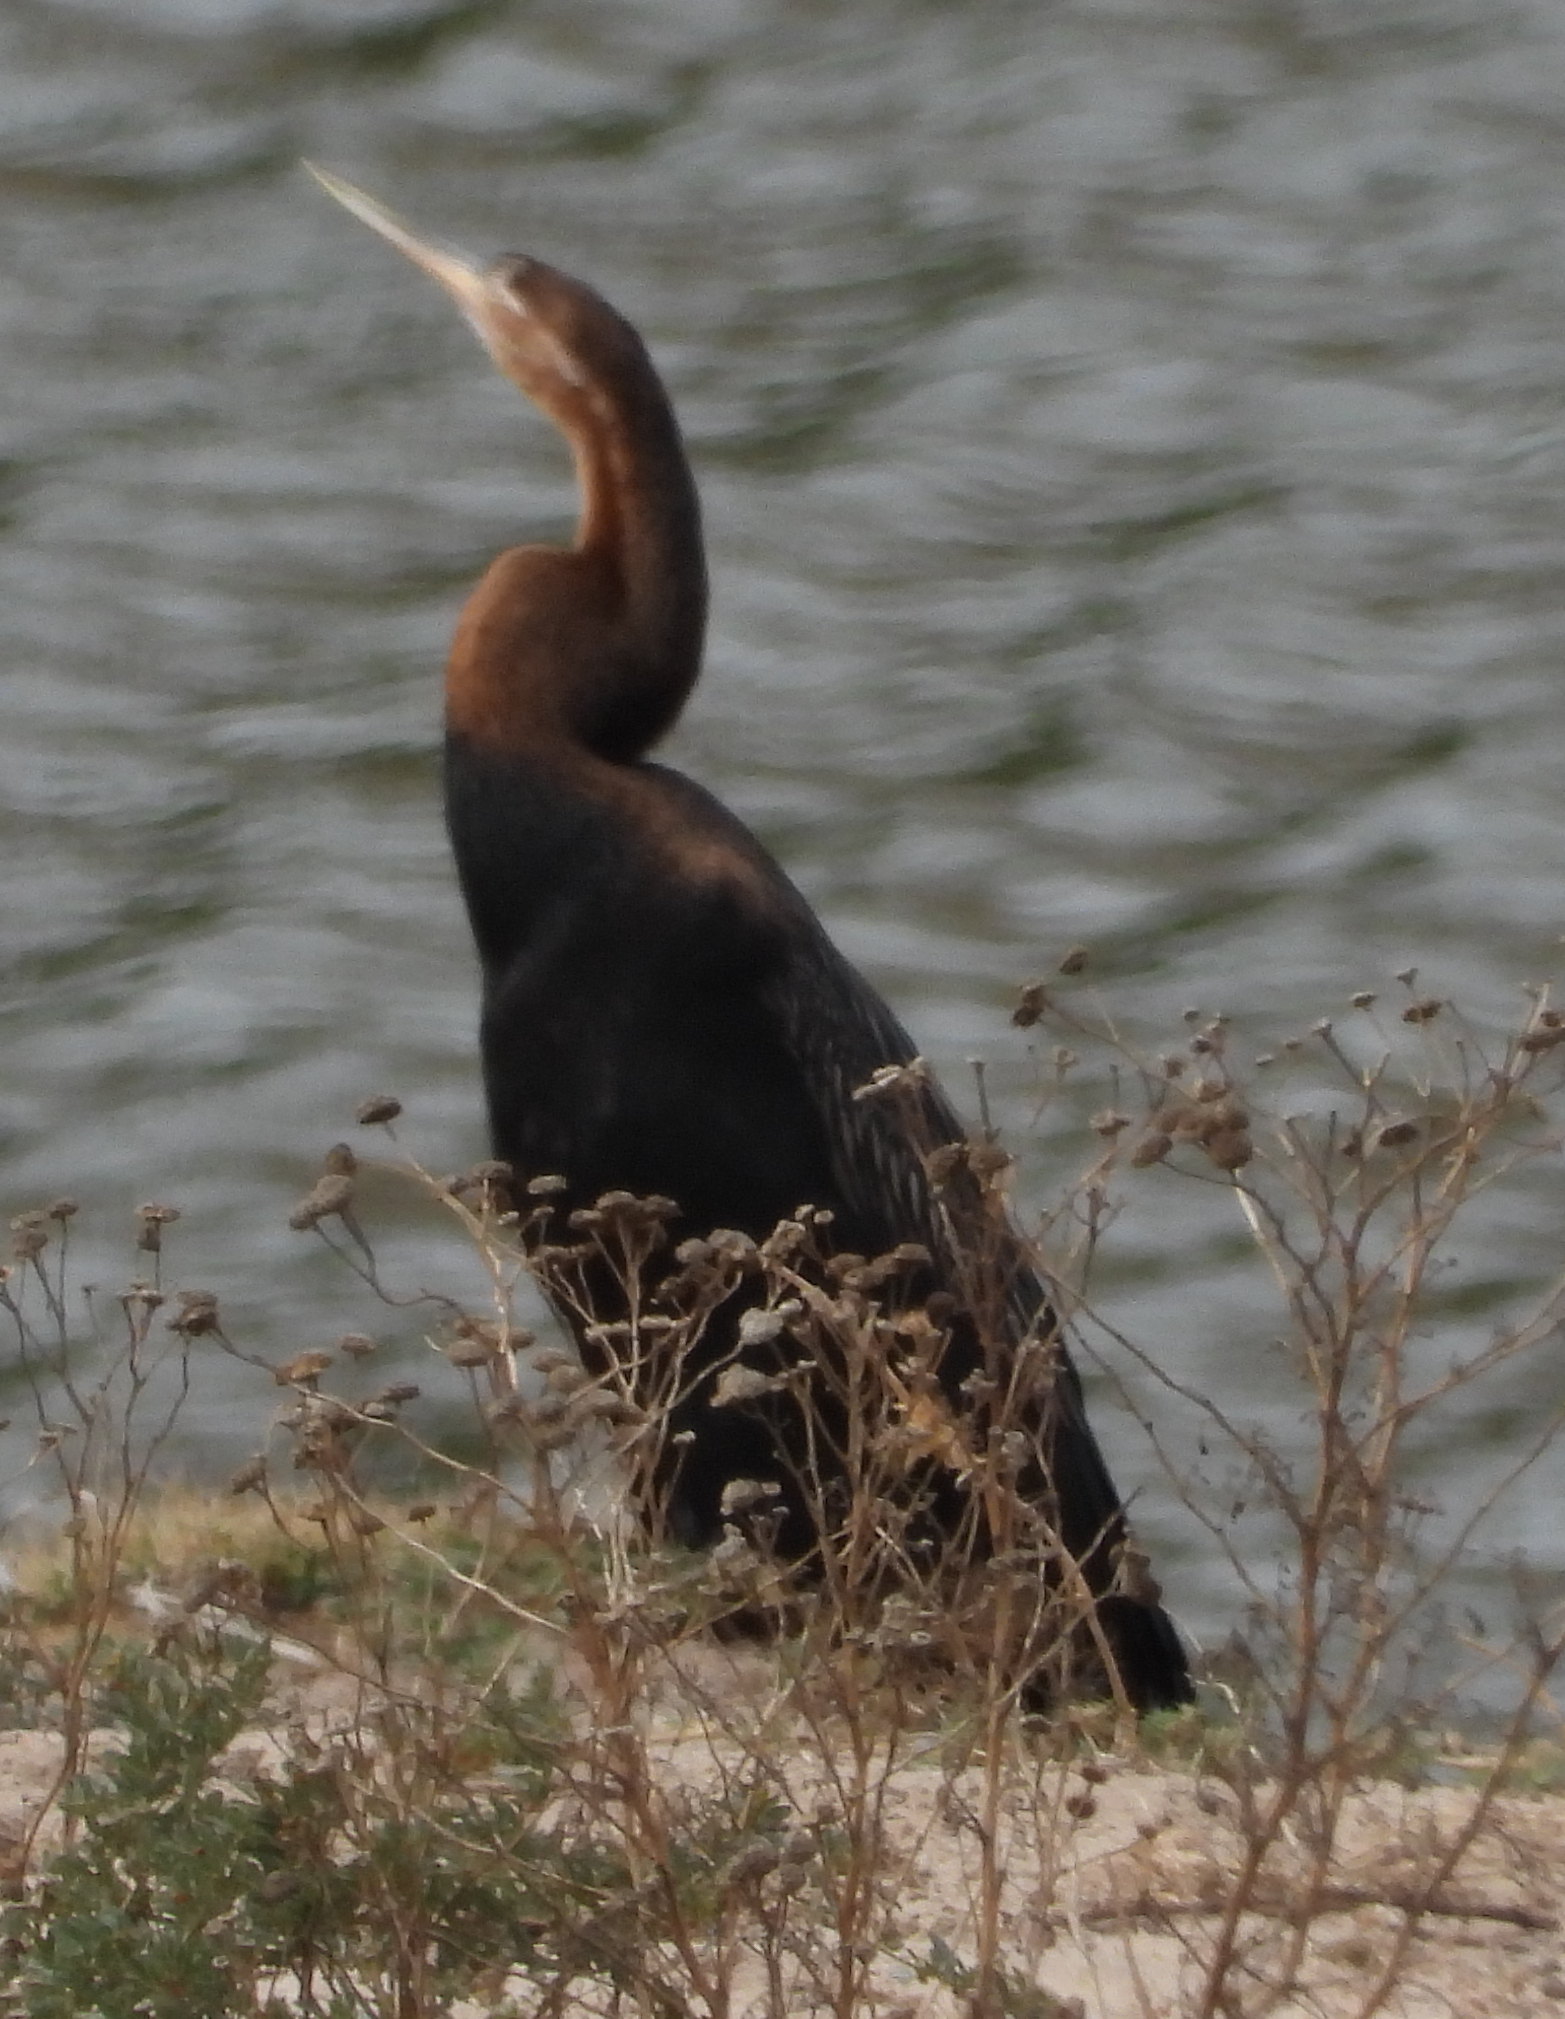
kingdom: Animalia
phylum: Chordata
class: Aves
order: Suliformes
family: Anhingidae
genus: Anhinga
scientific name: Anhinga rufa
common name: African darter
